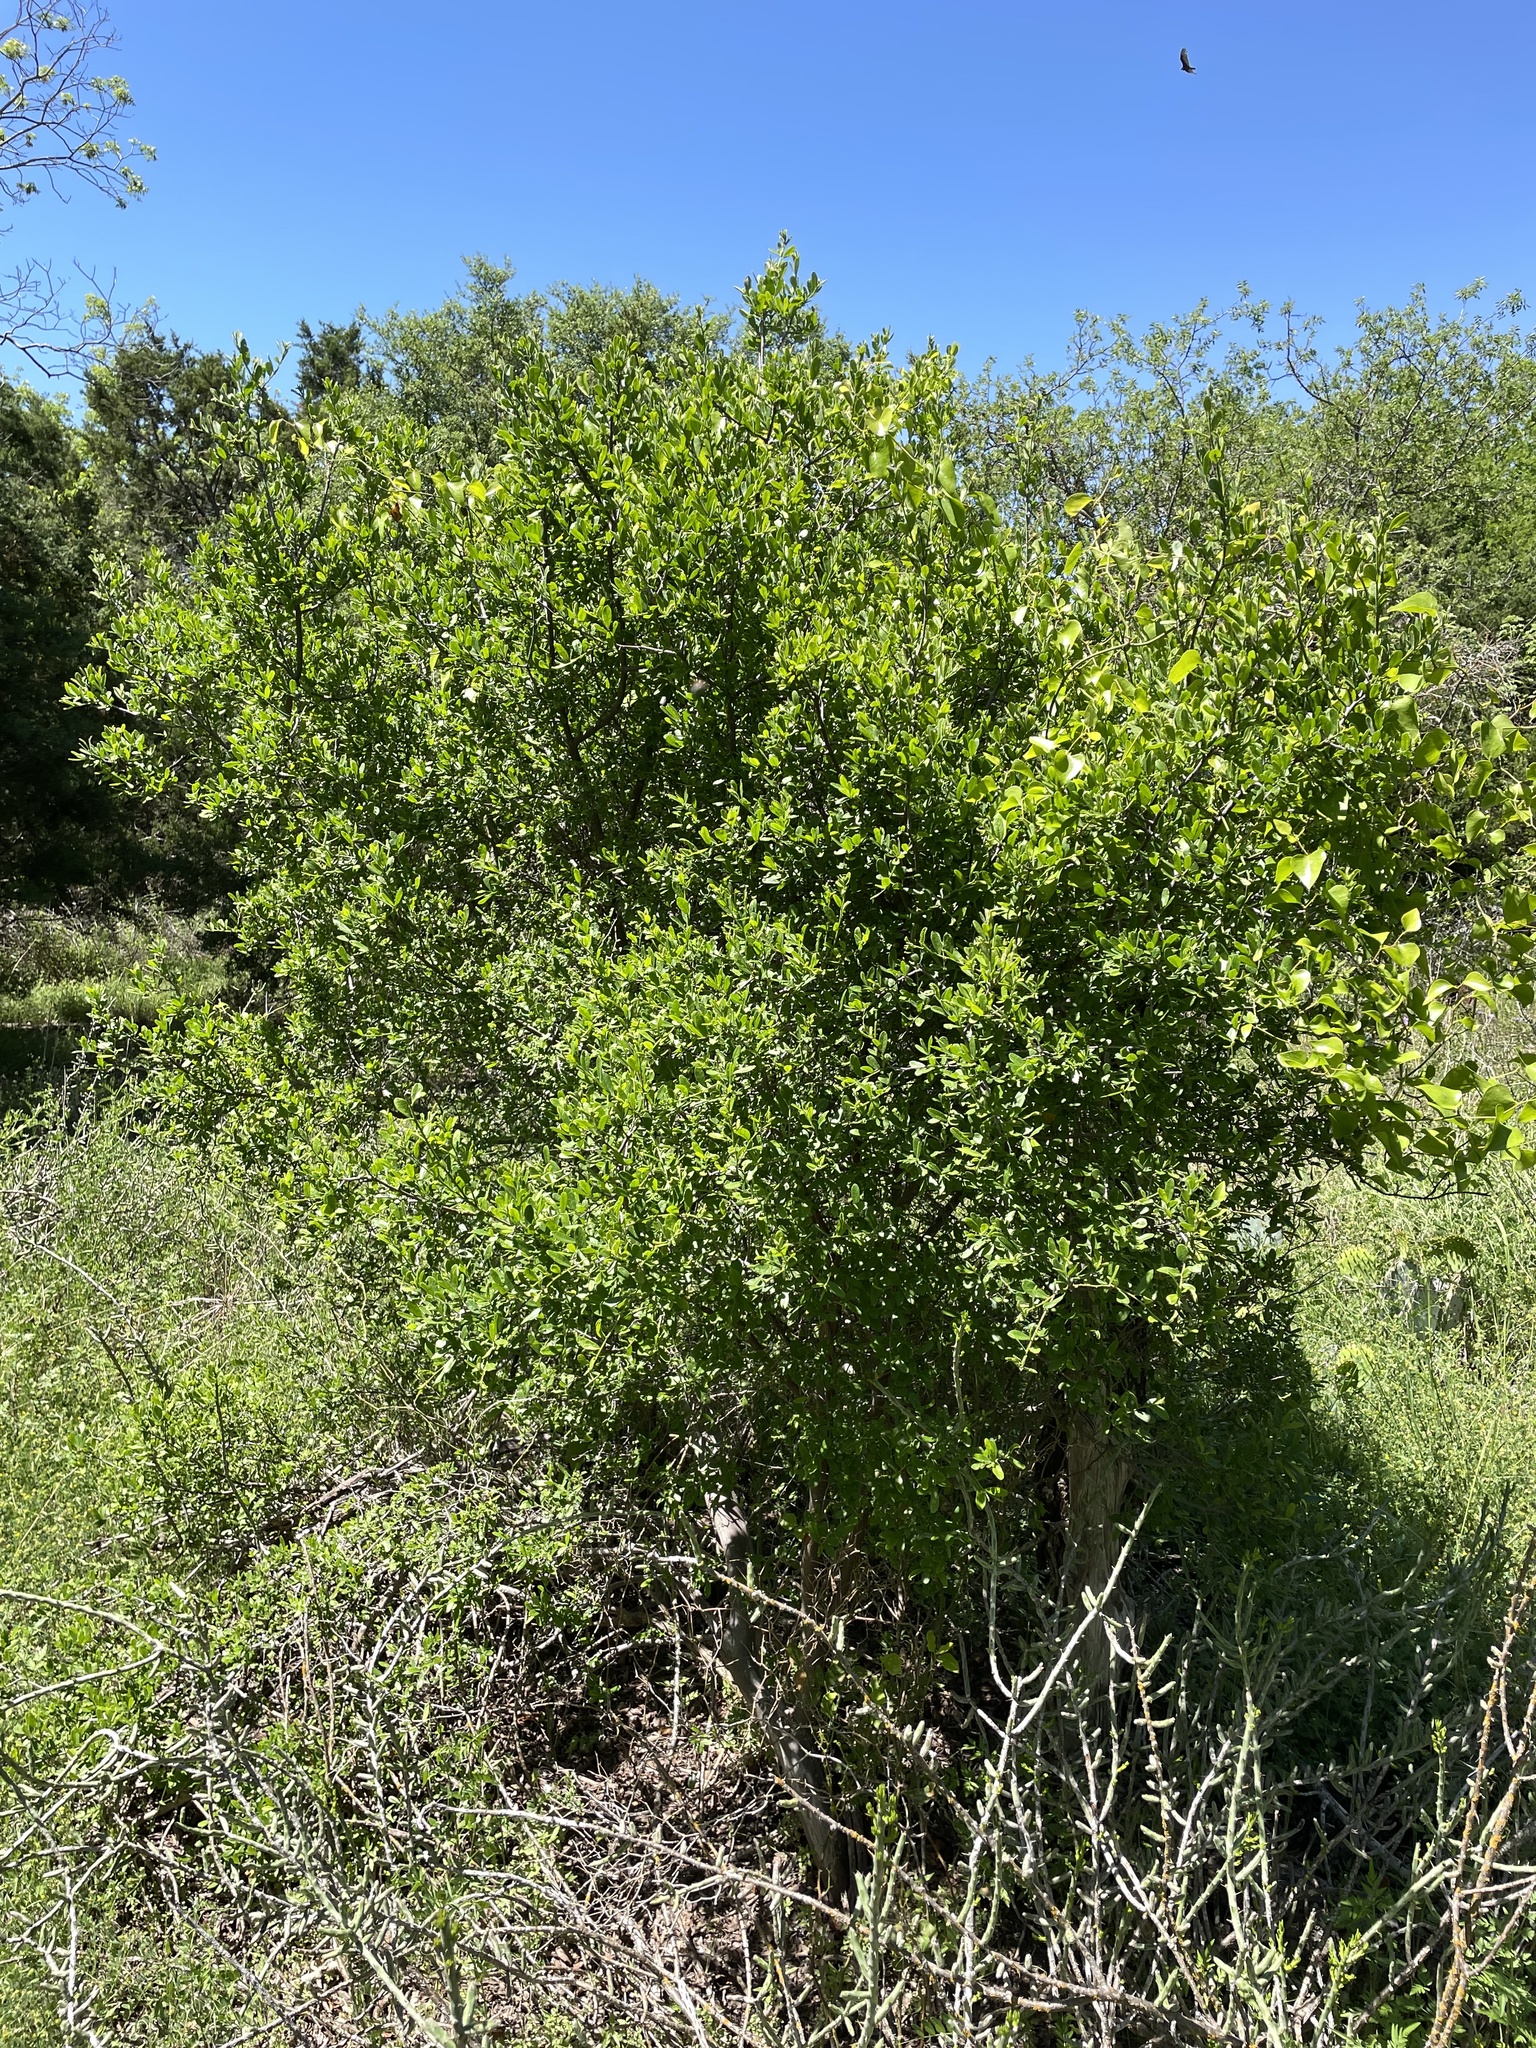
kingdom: Plantae
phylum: Tracheophyta
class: Magnoliopsida
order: Ericales
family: Ebenaceae
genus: Diospyros
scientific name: Diospyros texana
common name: Texas persimmon
